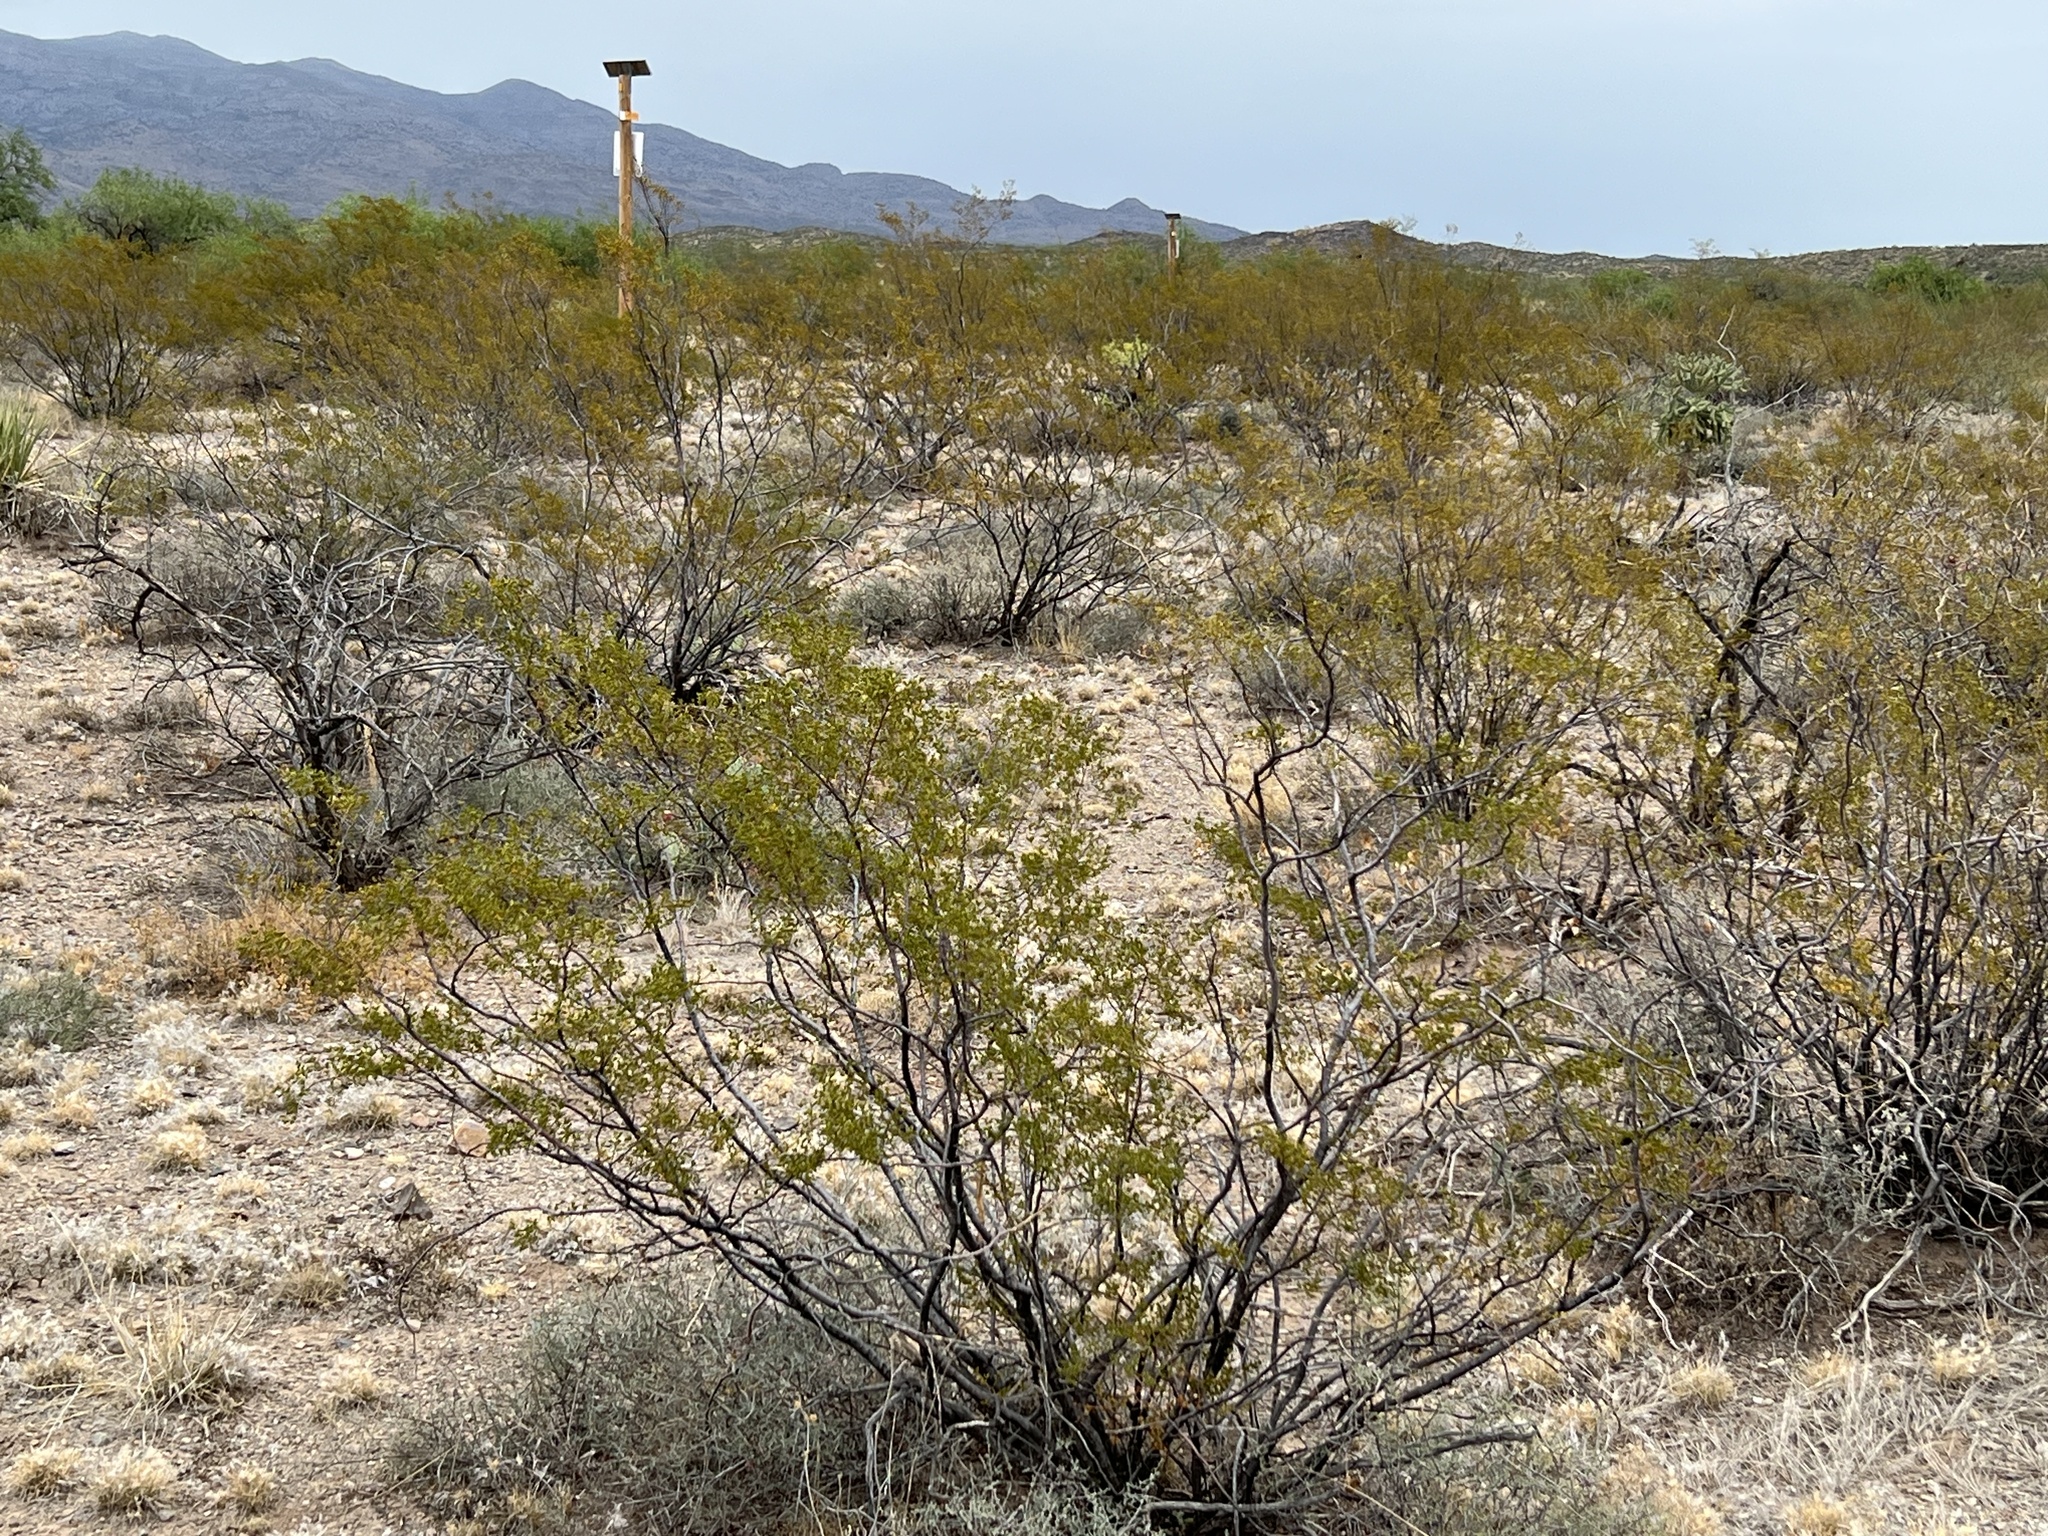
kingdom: Plantae
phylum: Tracheophyta
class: Magnoliopsida
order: Zygophyllales
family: Zygophyllaceae
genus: Larrea
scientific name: Larrea tridentata
